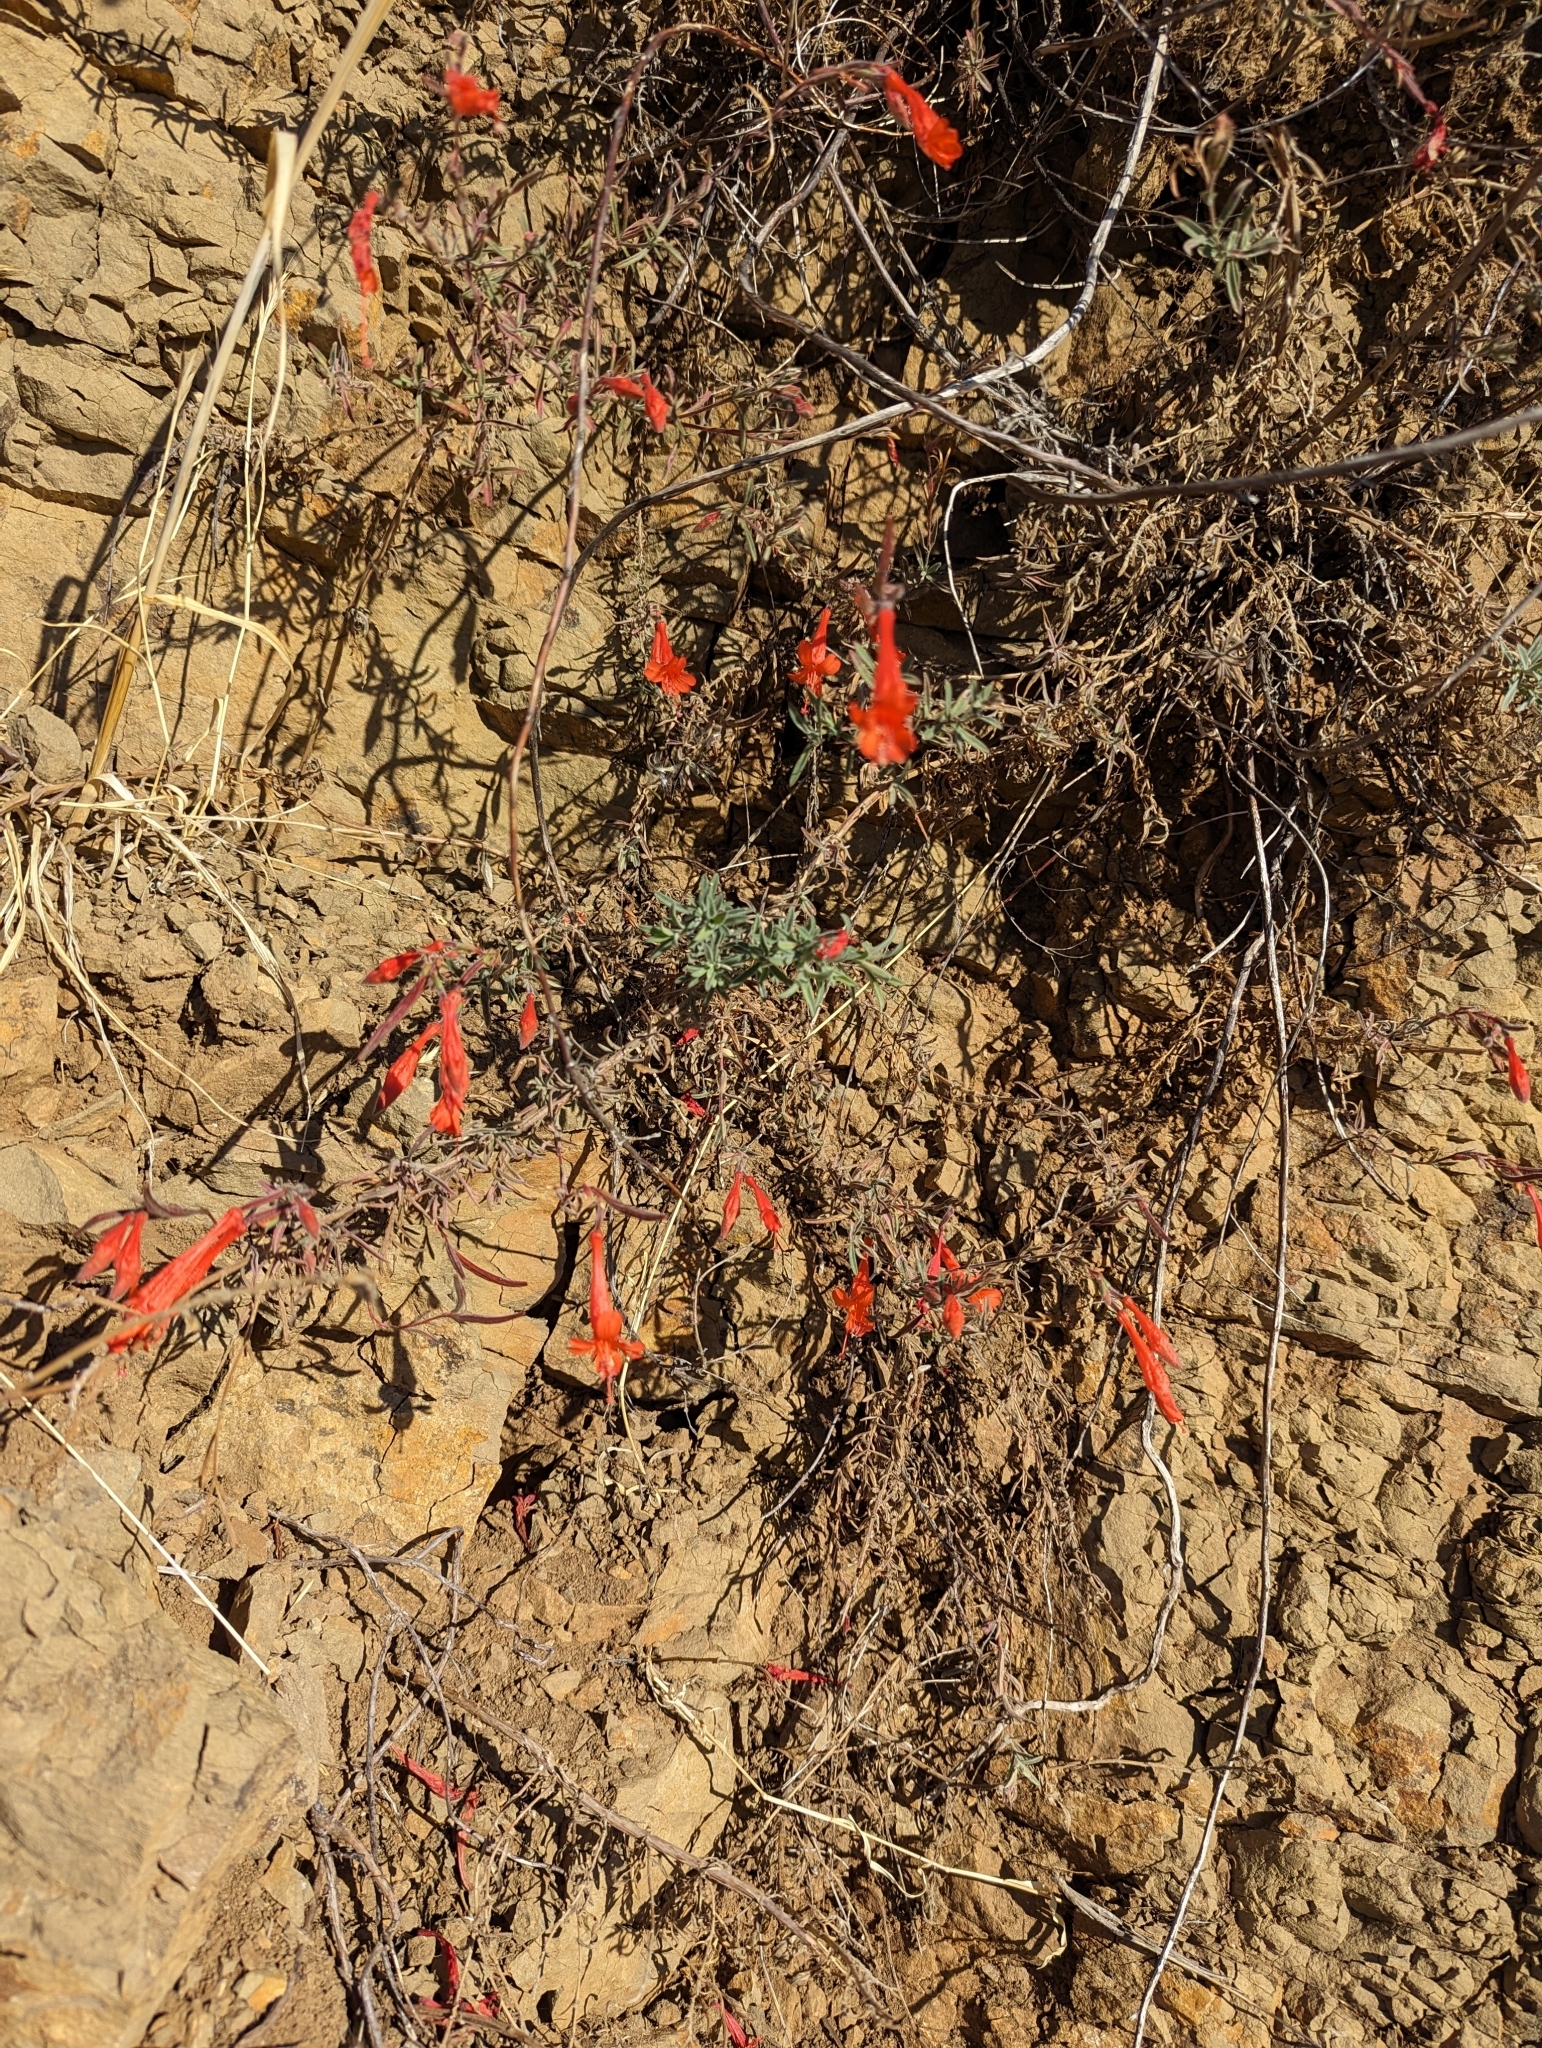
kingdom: Plantae
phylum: Tracheophyta
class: Magnoliopsida
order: Myrtales
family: Onagraceae
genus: Epilobium
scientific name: Epilobium canum
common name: California-fuchsia
